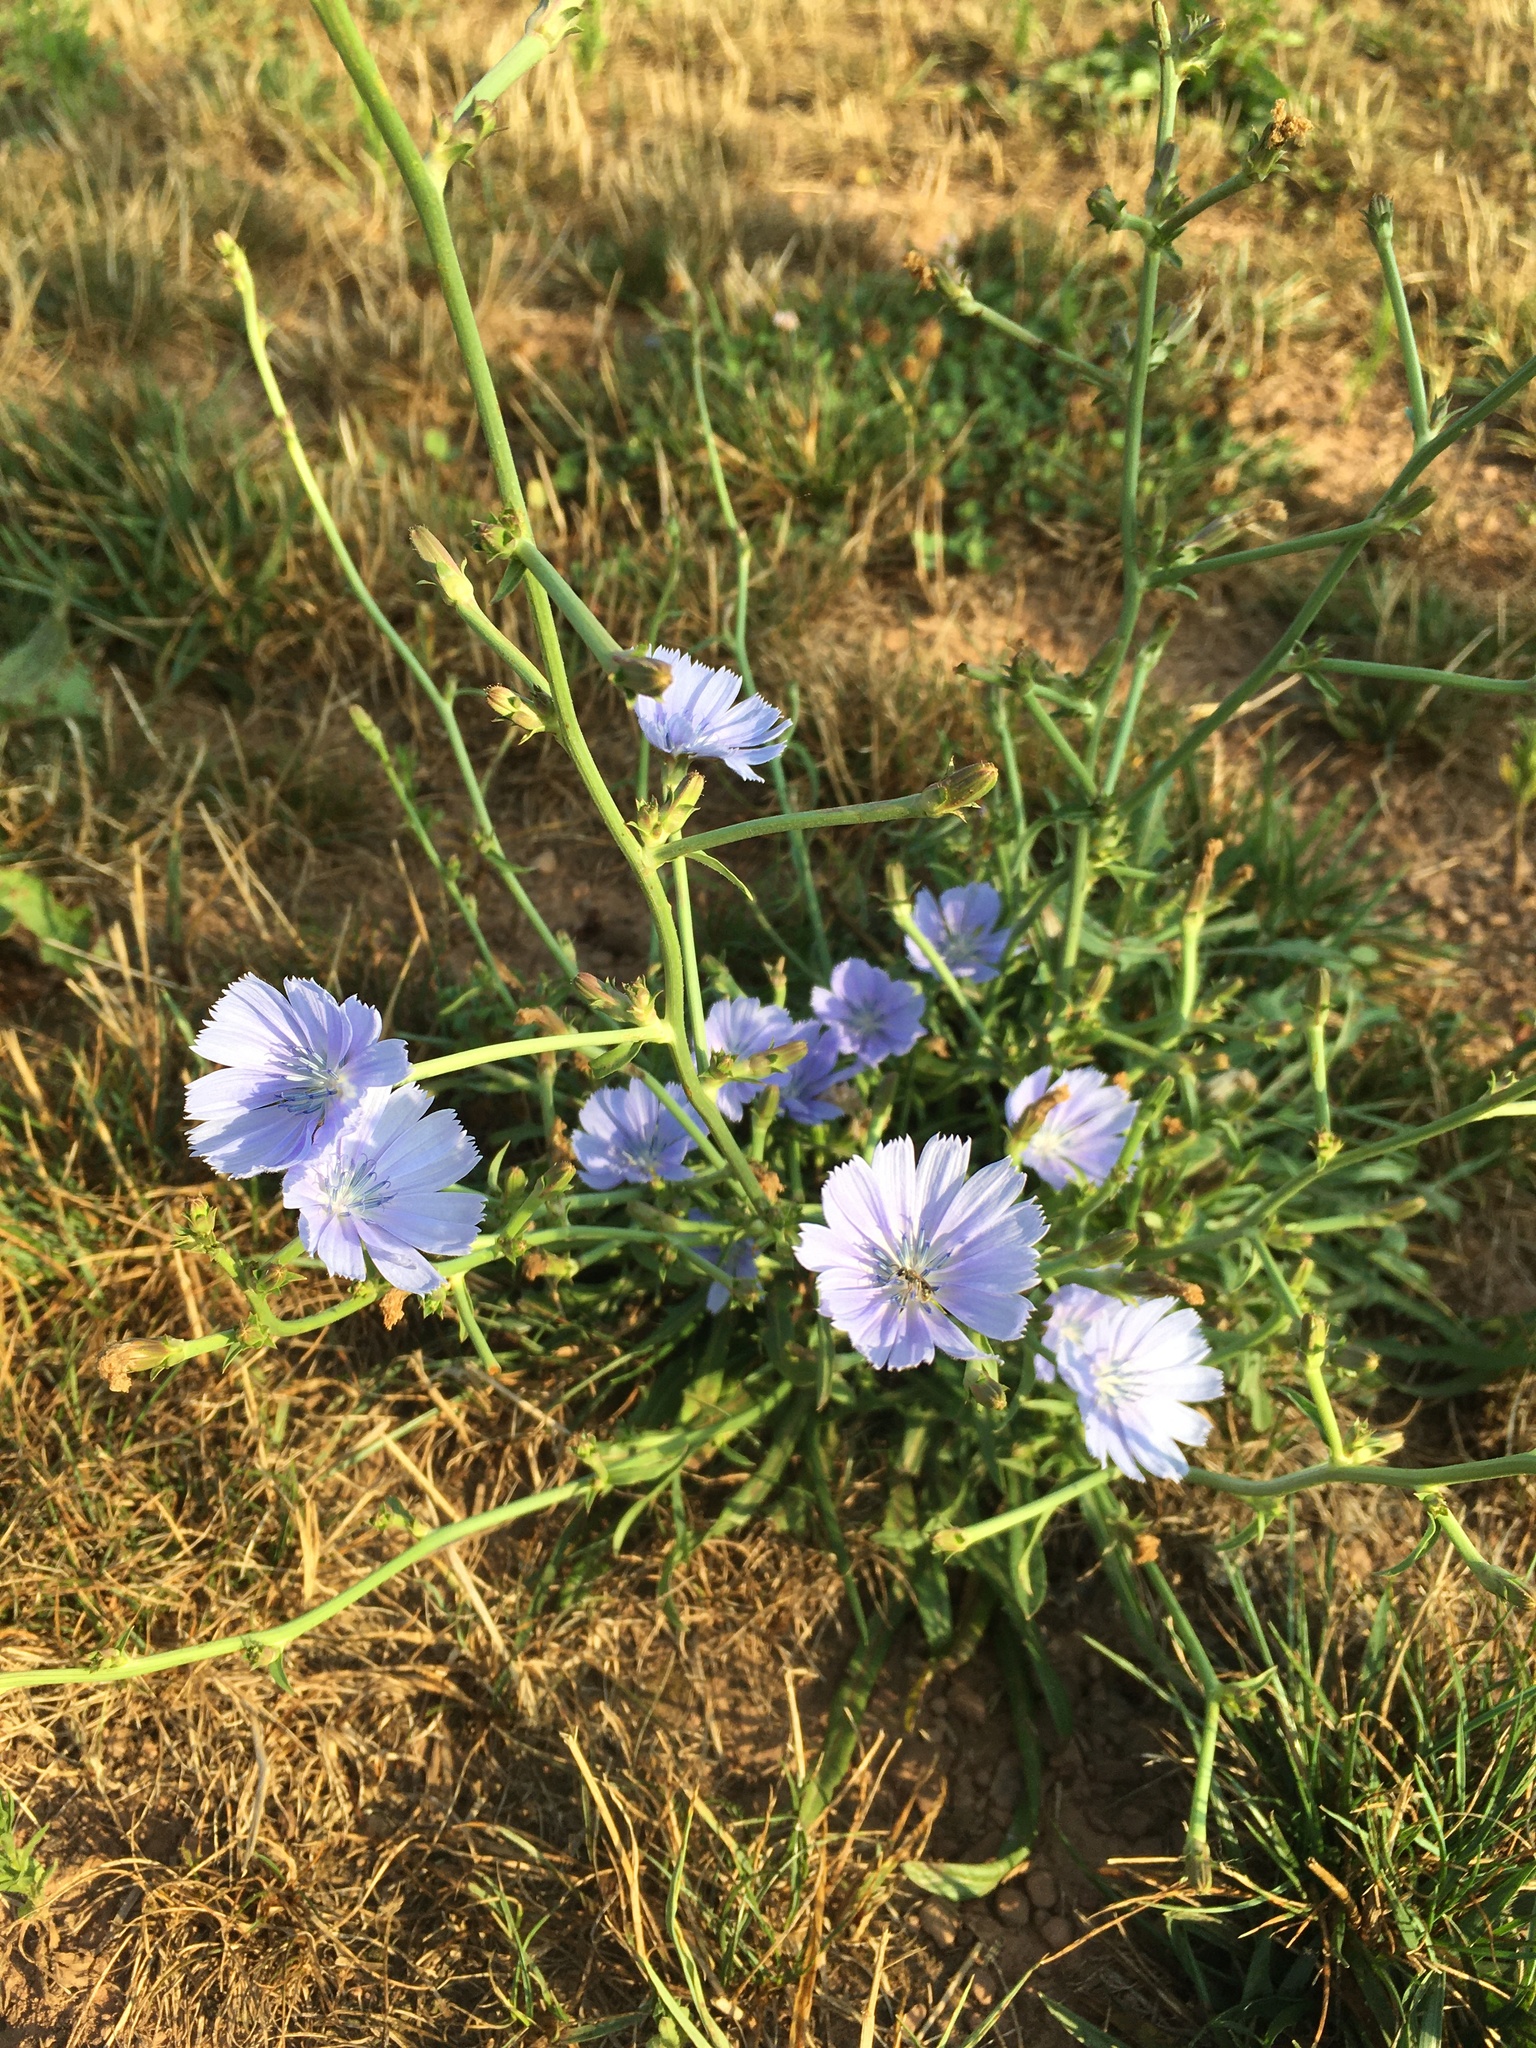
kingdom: Plantae
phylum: Tracheophyta
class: Magnoliopsida
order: Asterales
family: Asteraceae
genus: Cichorium
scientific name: Cichorium intybus
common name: Chicory
